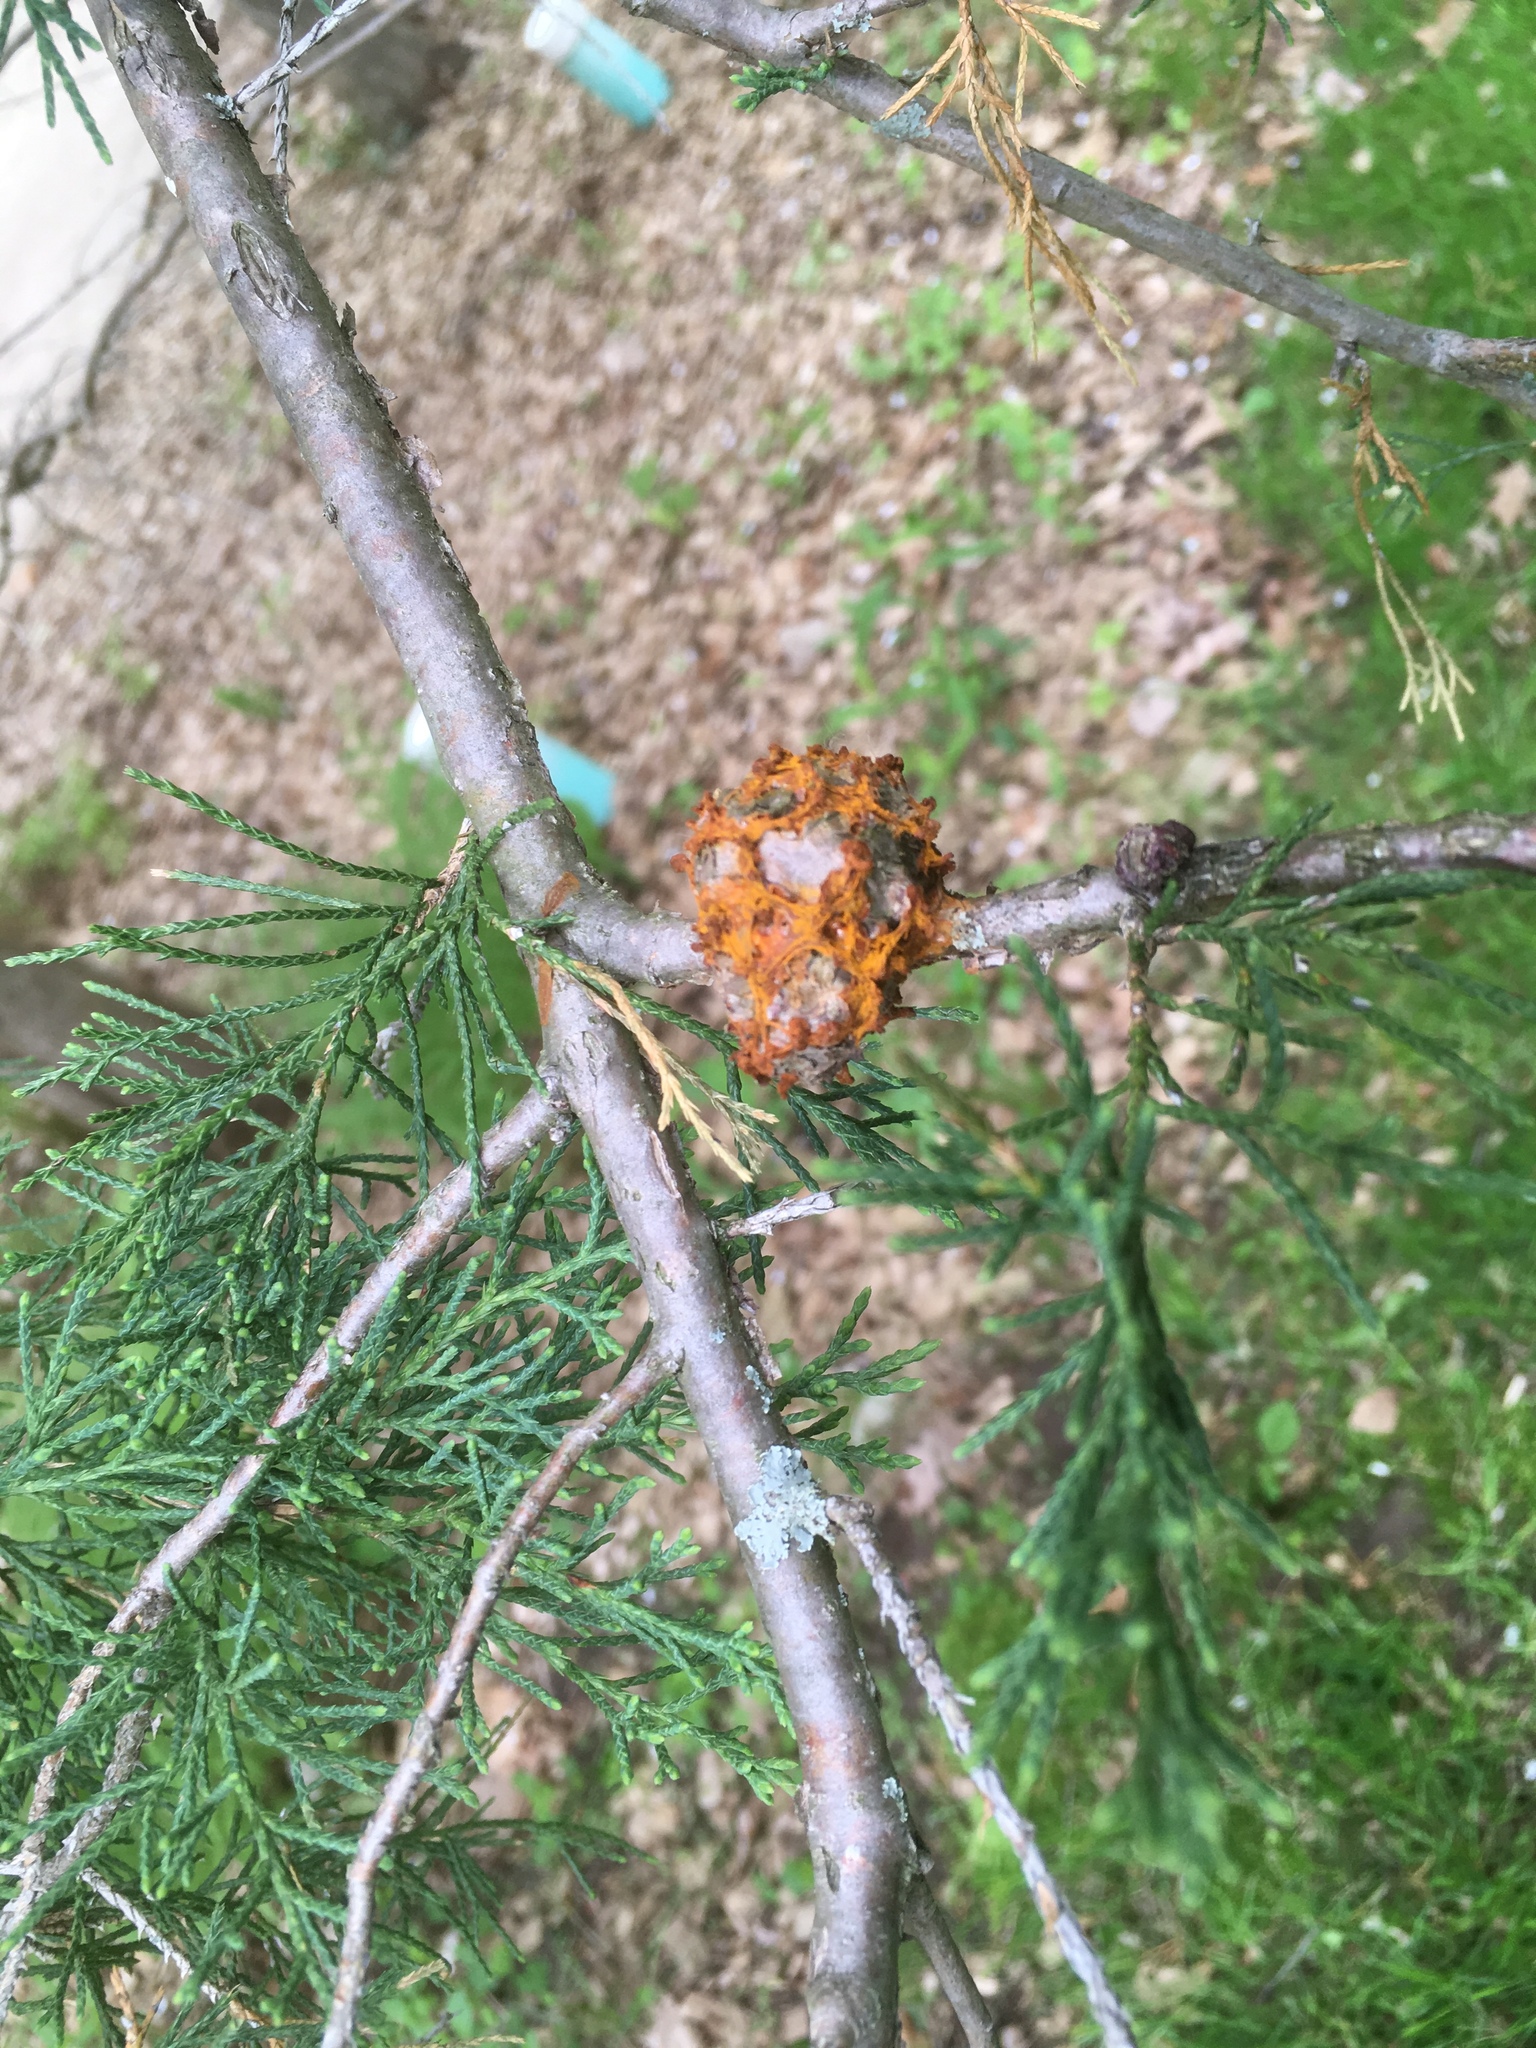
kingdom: Fungi
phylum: Basidiomycota
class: Pucciniomycetes
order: Pucciniales
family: Gymnosporangiaceae
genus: Gymnosporangium
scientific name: Gymnosporangium juniperi-virginianae
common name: Juniper-apple rust
